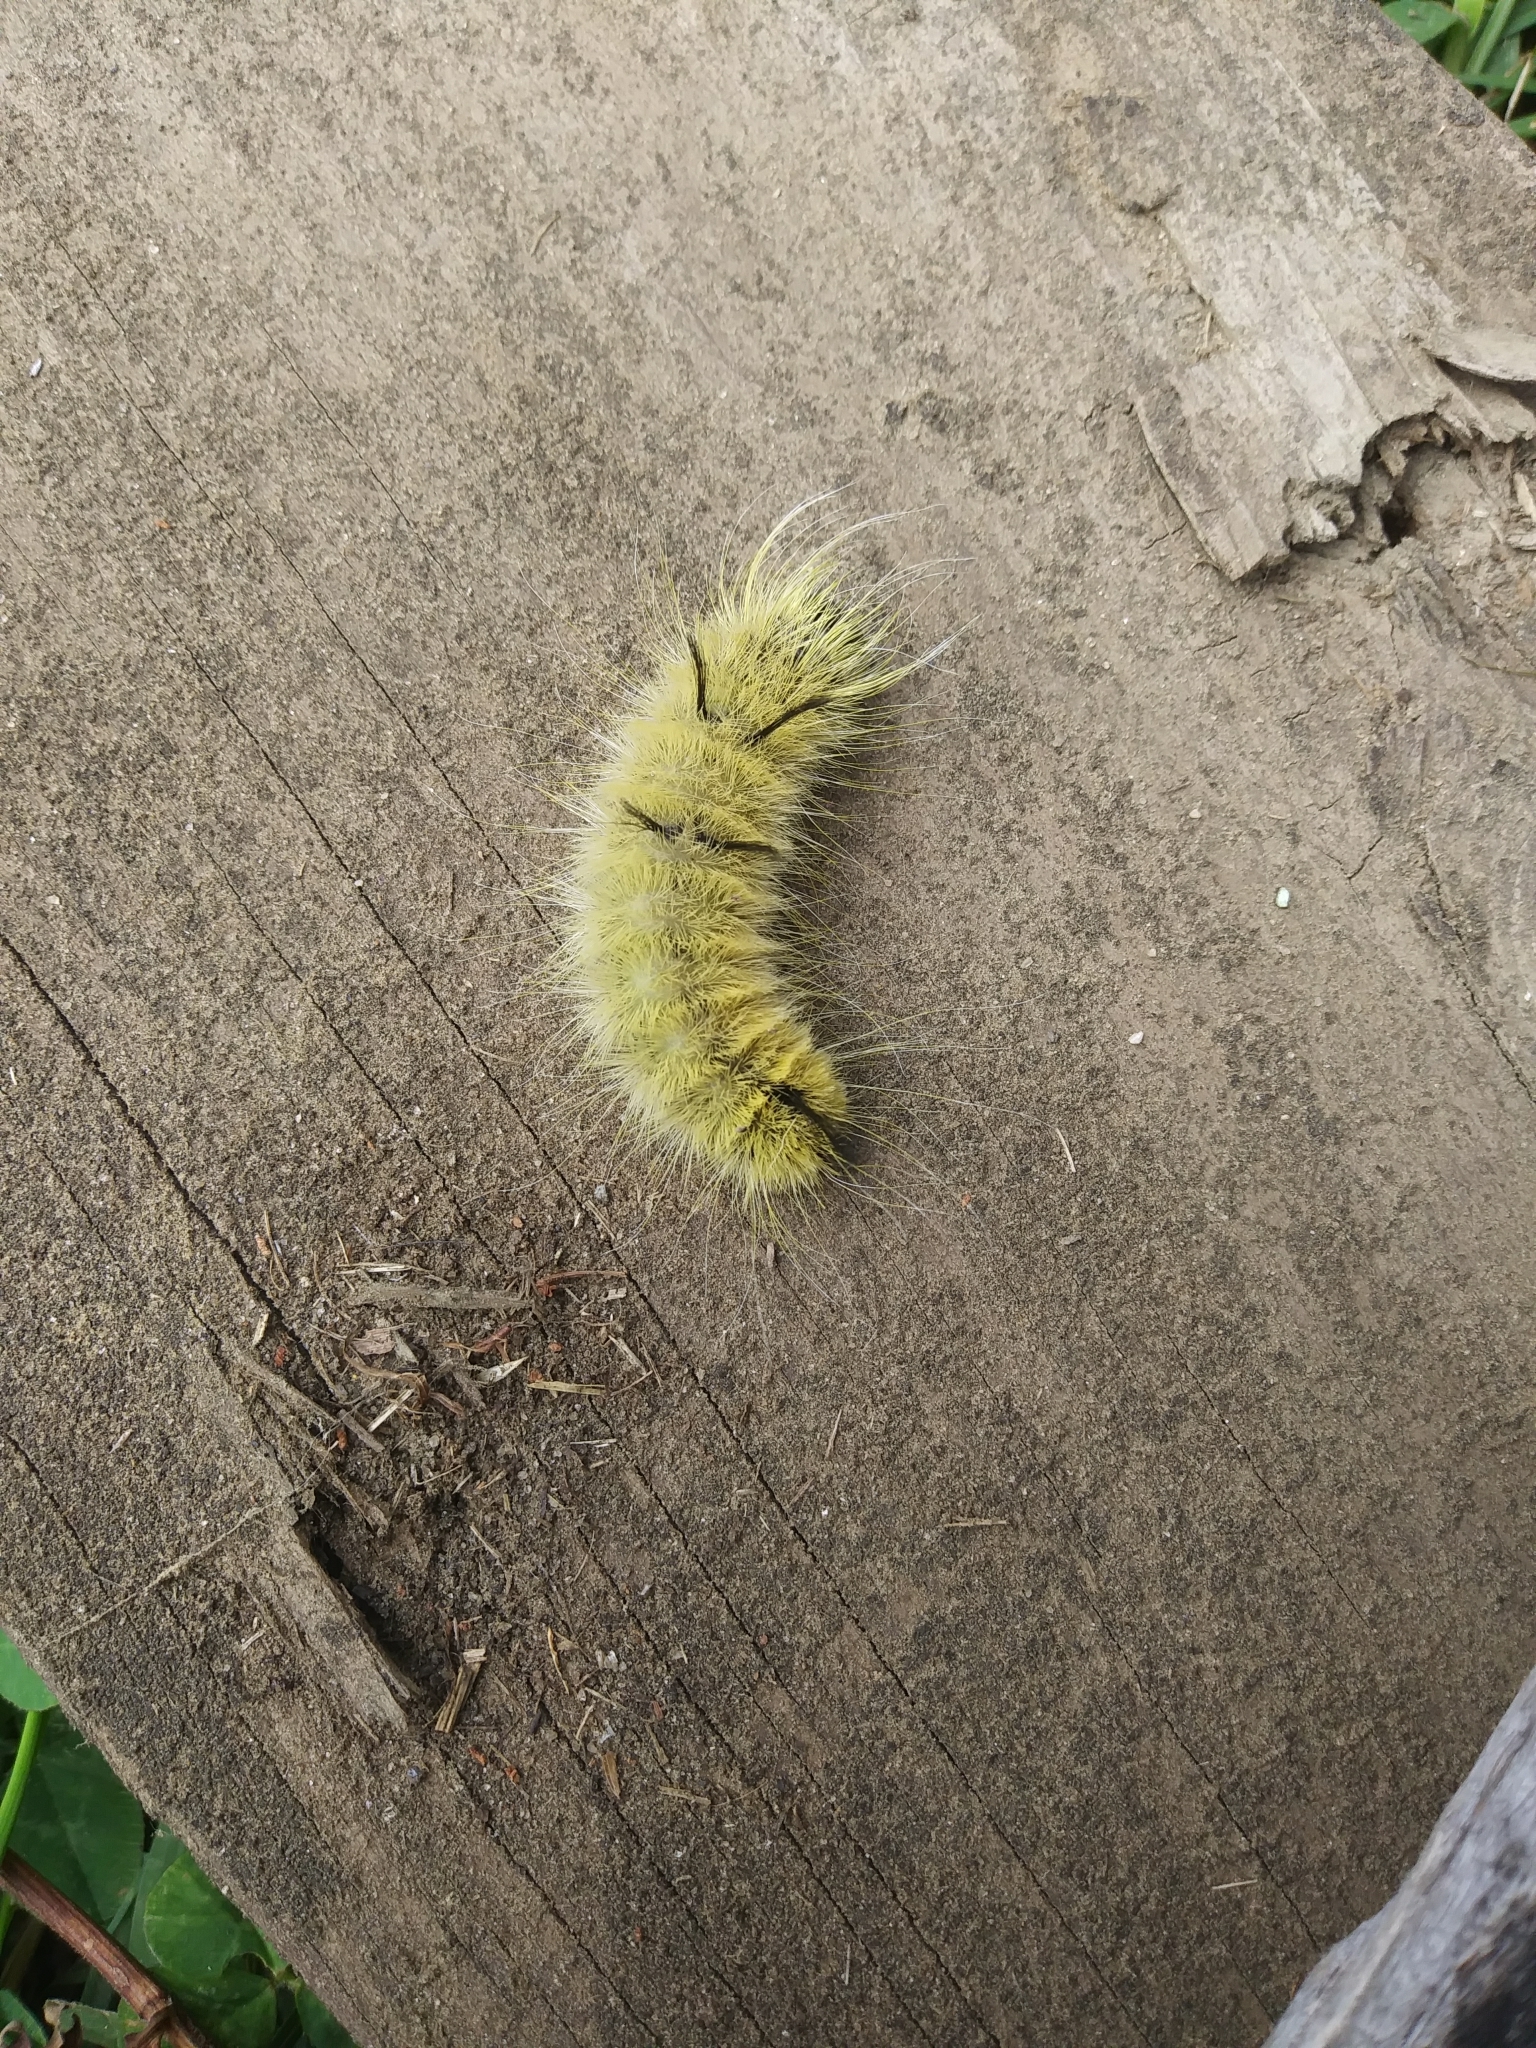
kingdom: Animalia
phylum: Arthropoda
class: Insecta
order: Lepidoptera
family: Noctuidae
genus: Acronicta
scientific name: Acronicta americana
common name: American dagger
